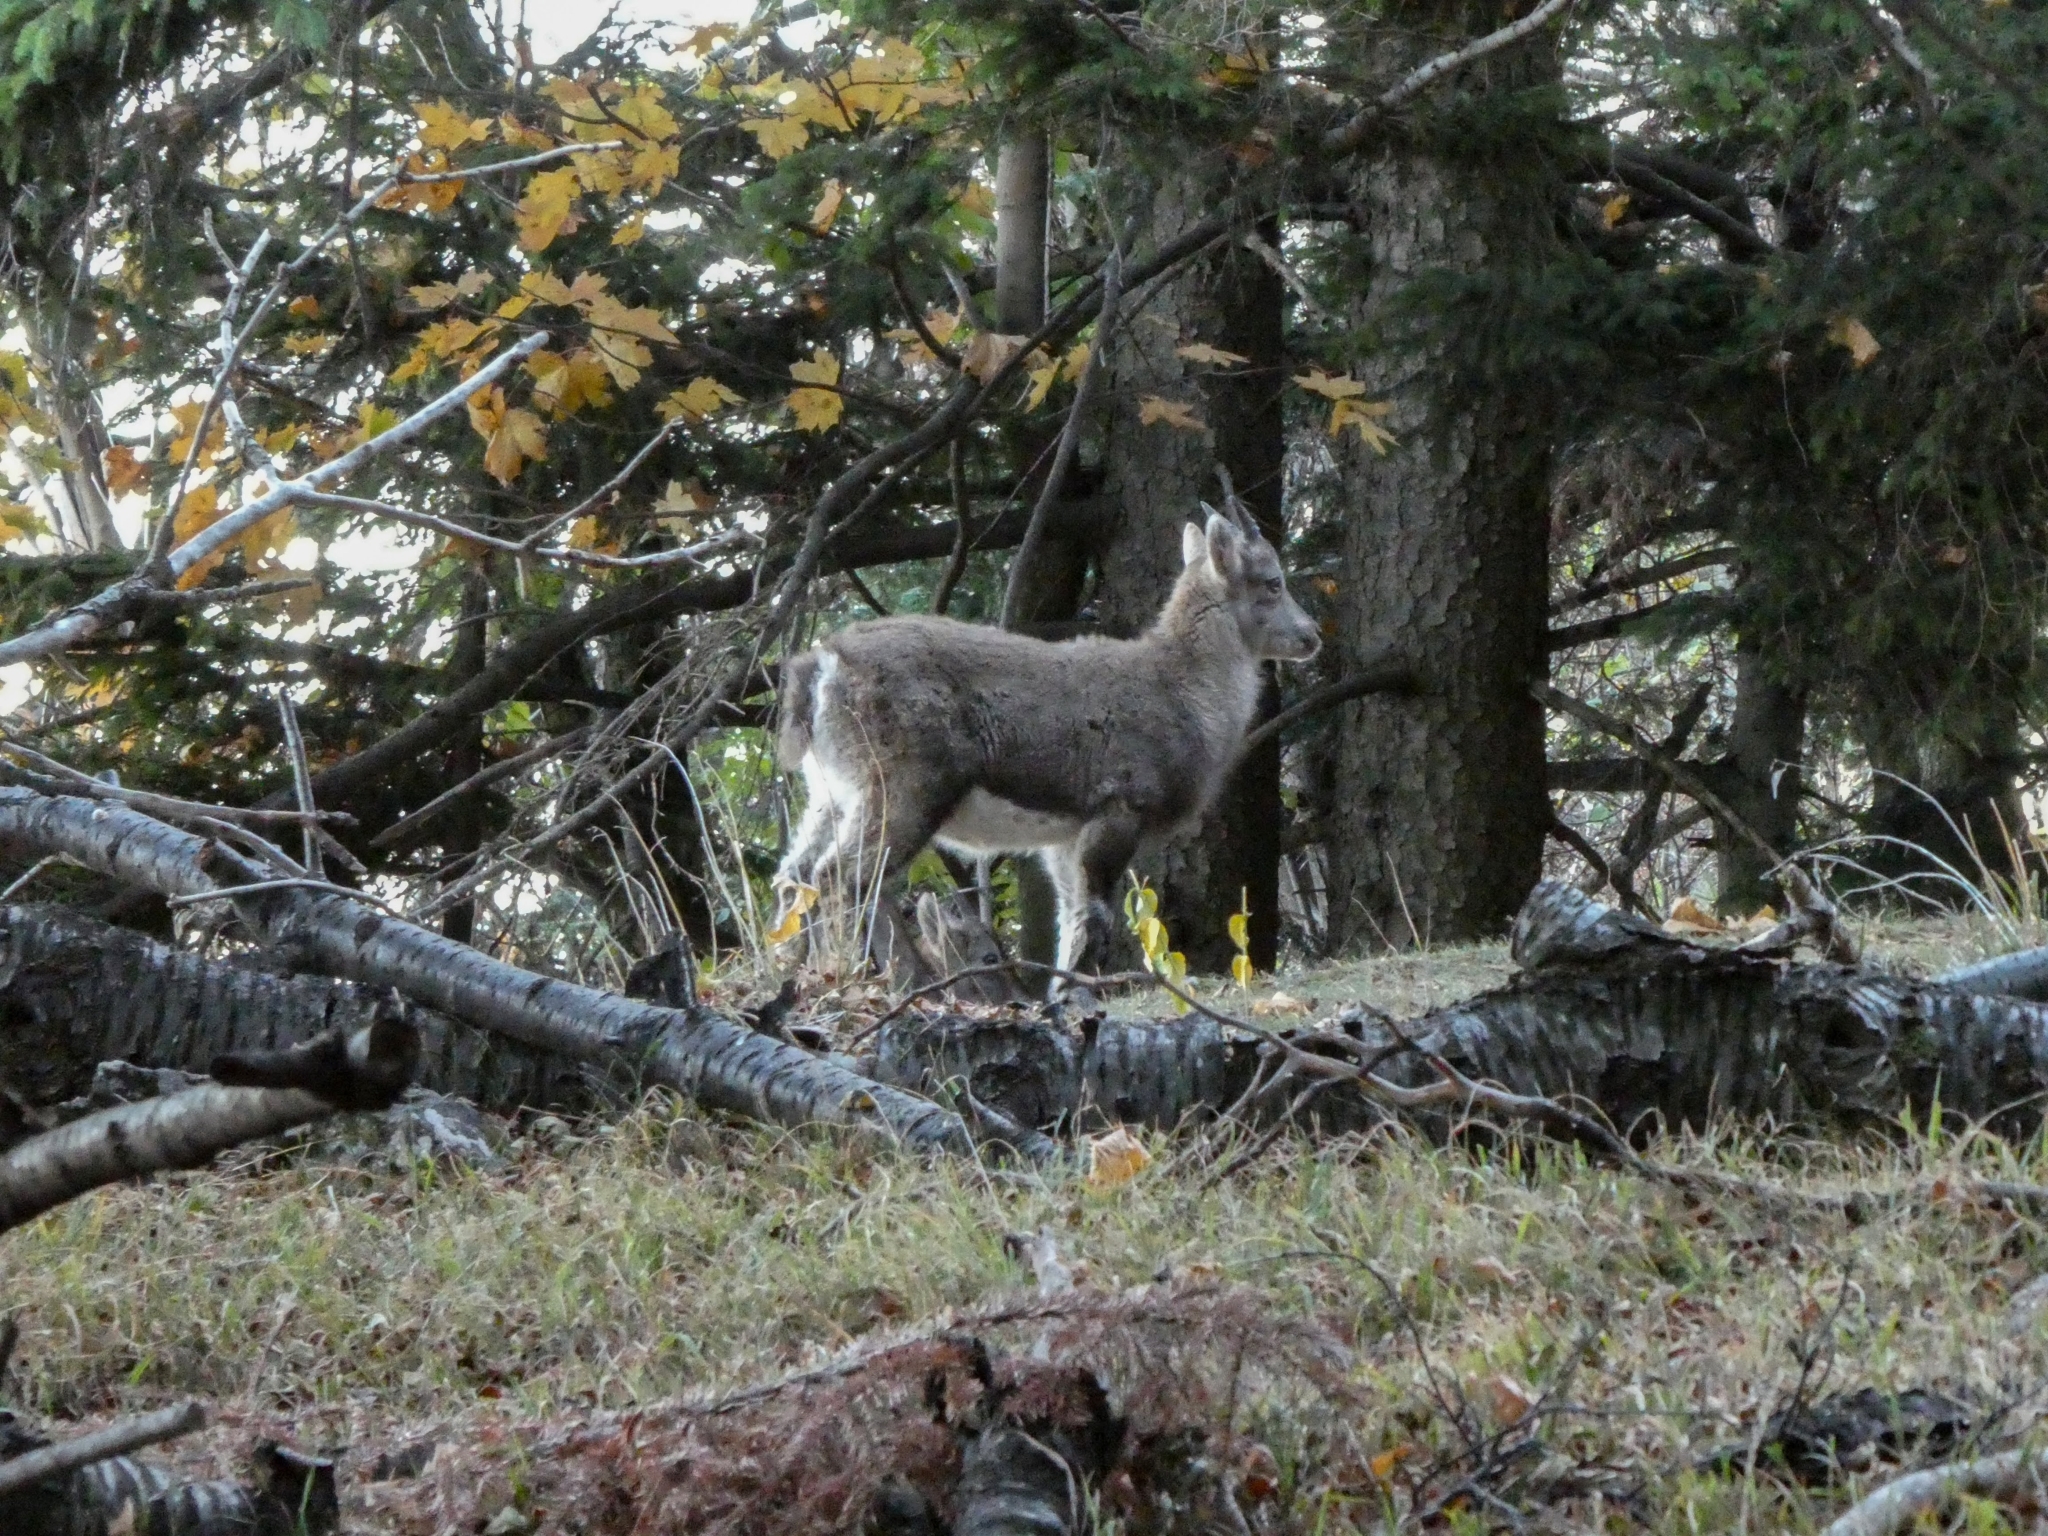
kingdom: Animalia
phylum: Chordata
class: Mammalia
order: Artiodactyla
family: Bovidae
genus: Capra
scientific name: Capra ibex
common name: Alpine ibex
